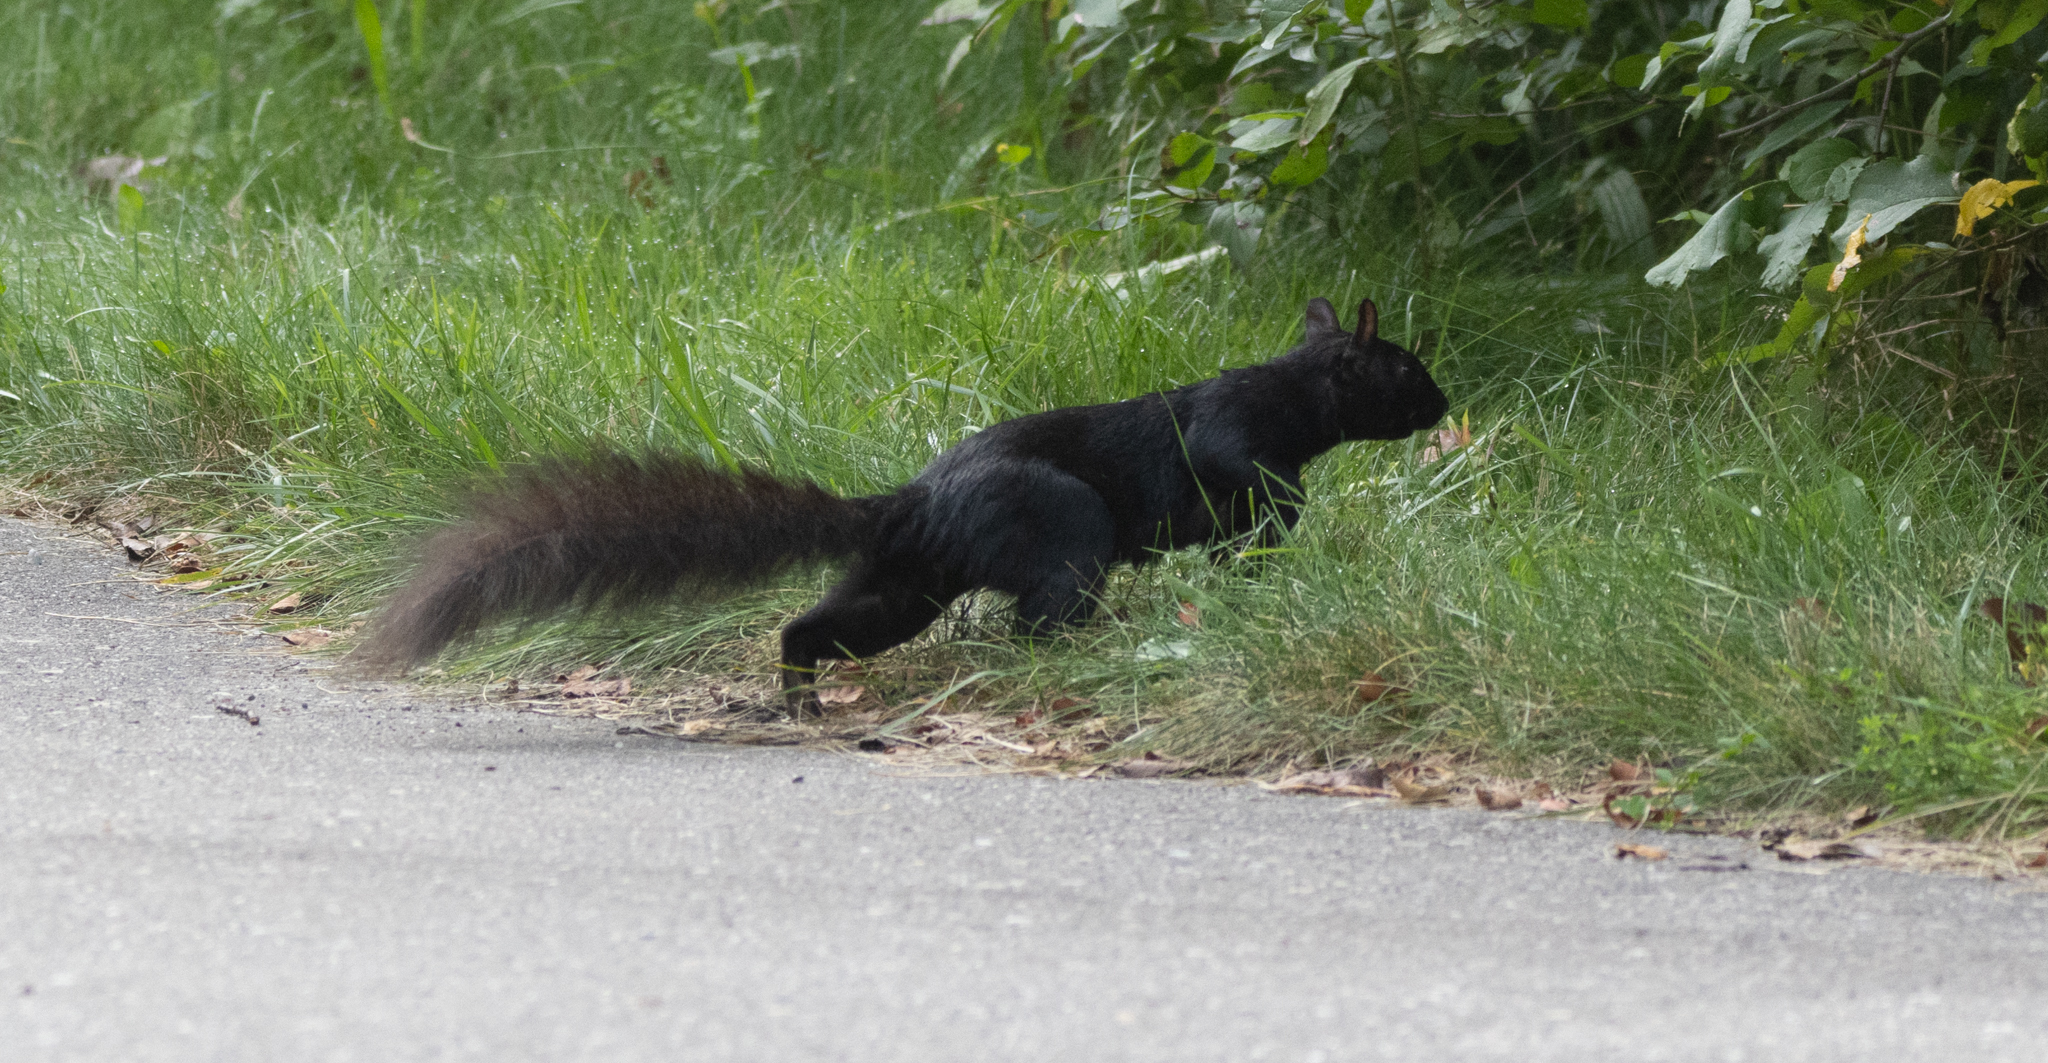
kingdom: Animalia
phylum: Chordata
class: Mammalia
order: Rodentia
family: Sciuridae
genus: Sciurus
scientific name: Sciurus carolinensis
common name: Eastern gray squirrel
